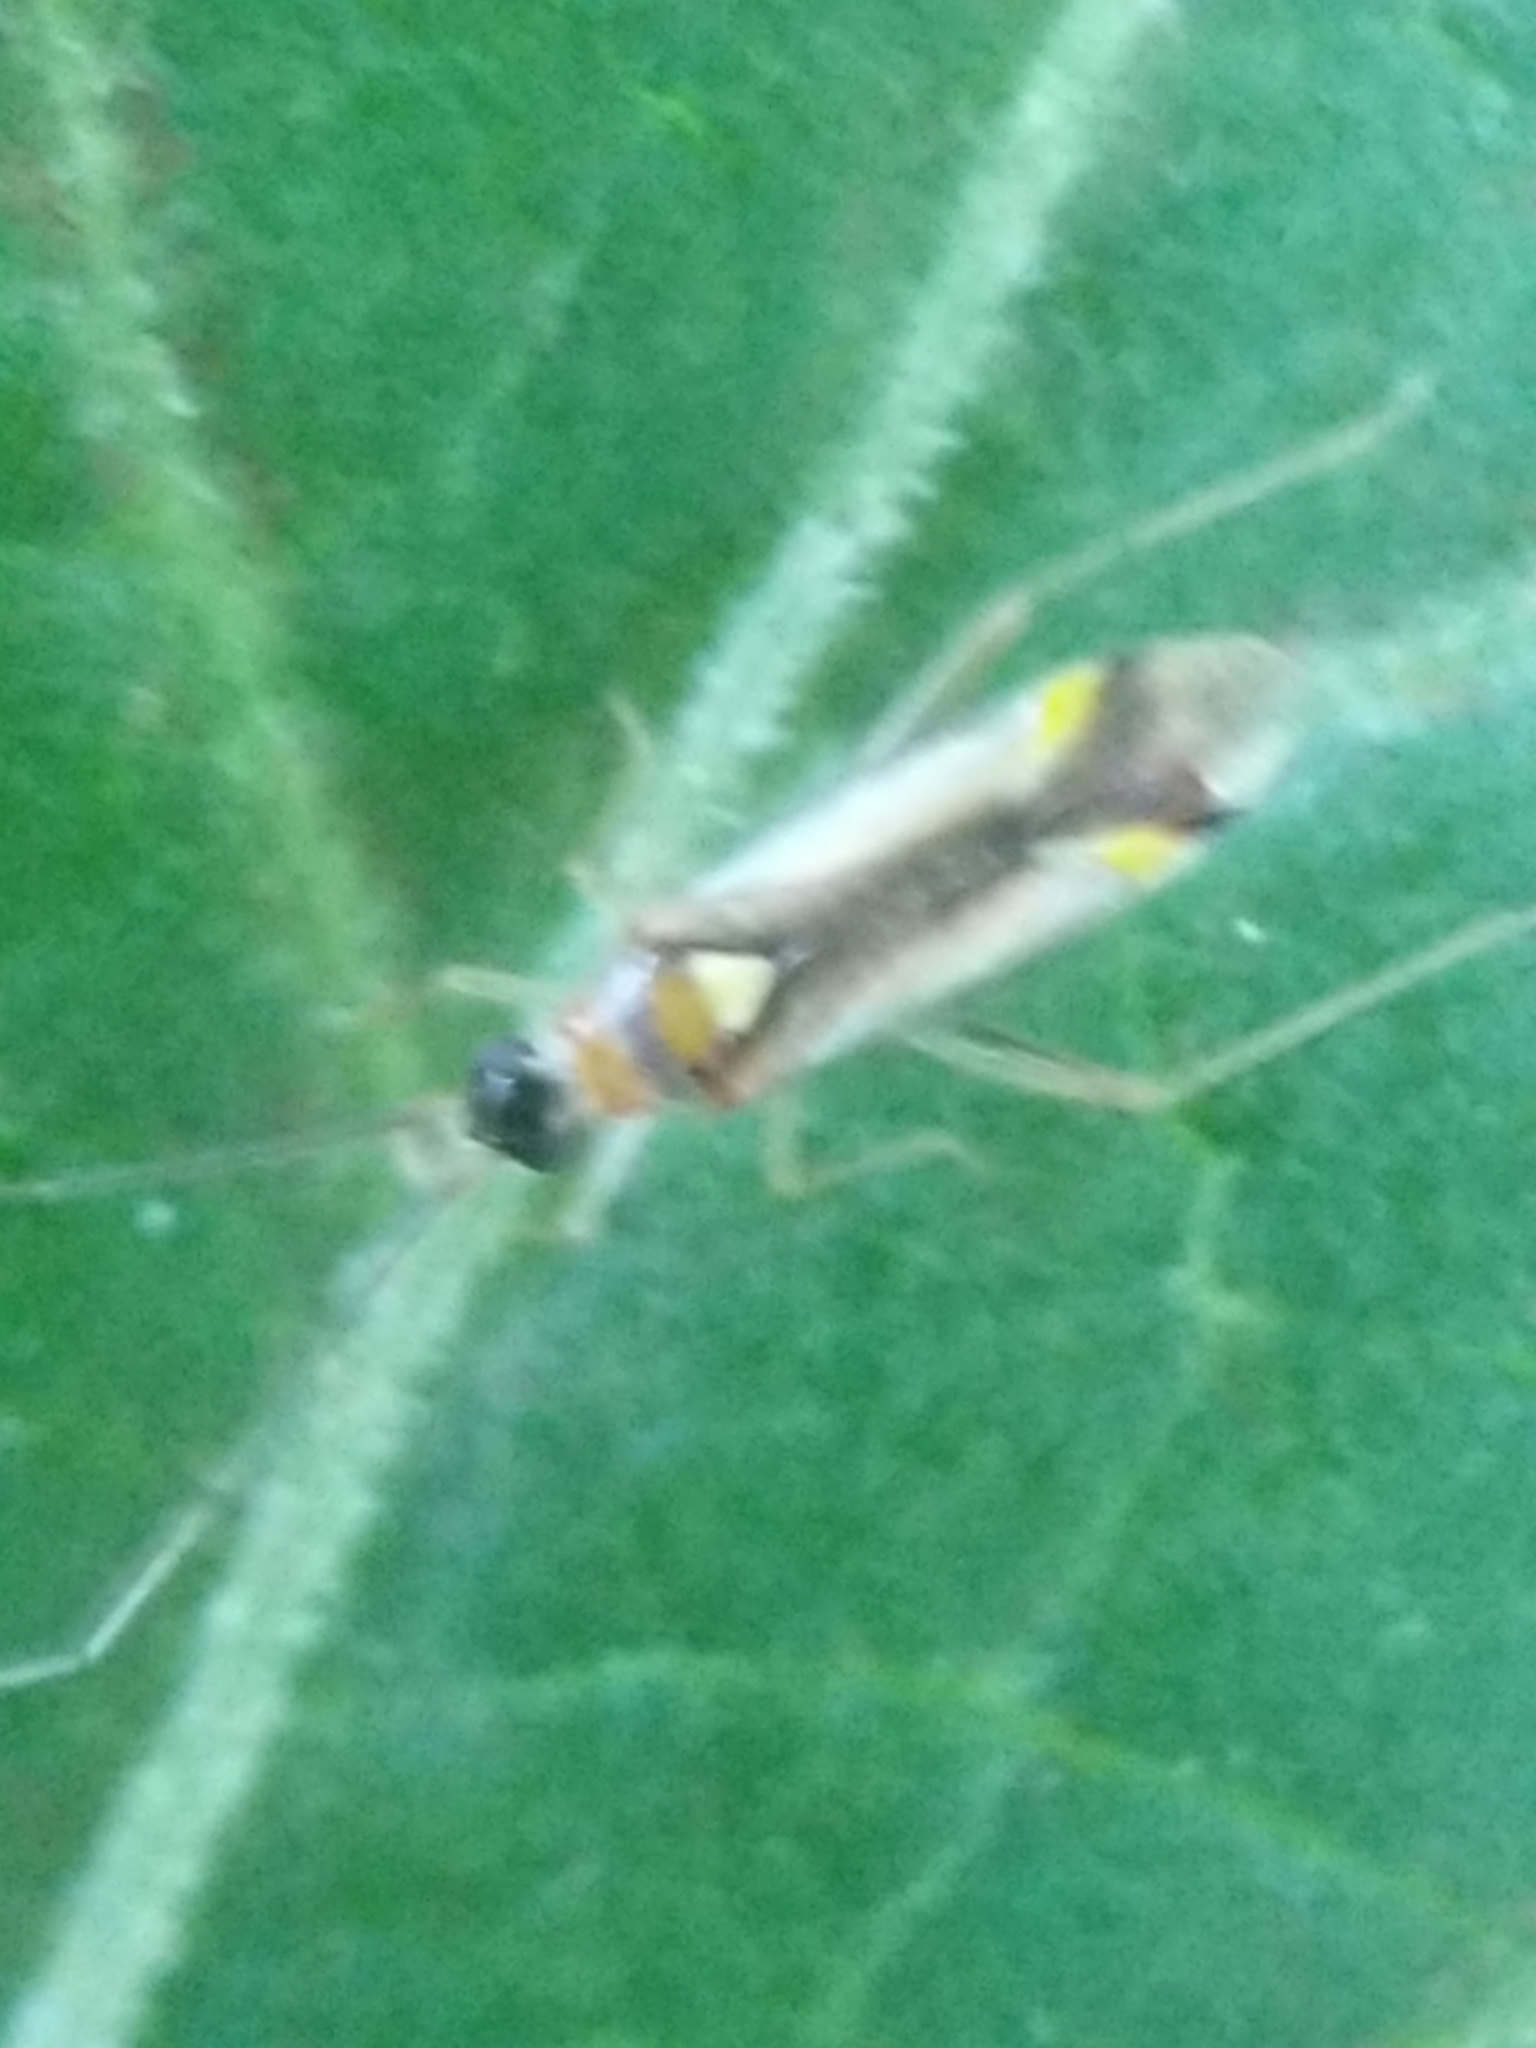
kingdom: Animalia
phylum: Arthropoda
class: Insecta
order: Hemiptera
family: Miridae
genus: Campyloneura
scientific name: Campyloneura virgula
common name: Predatory bug
